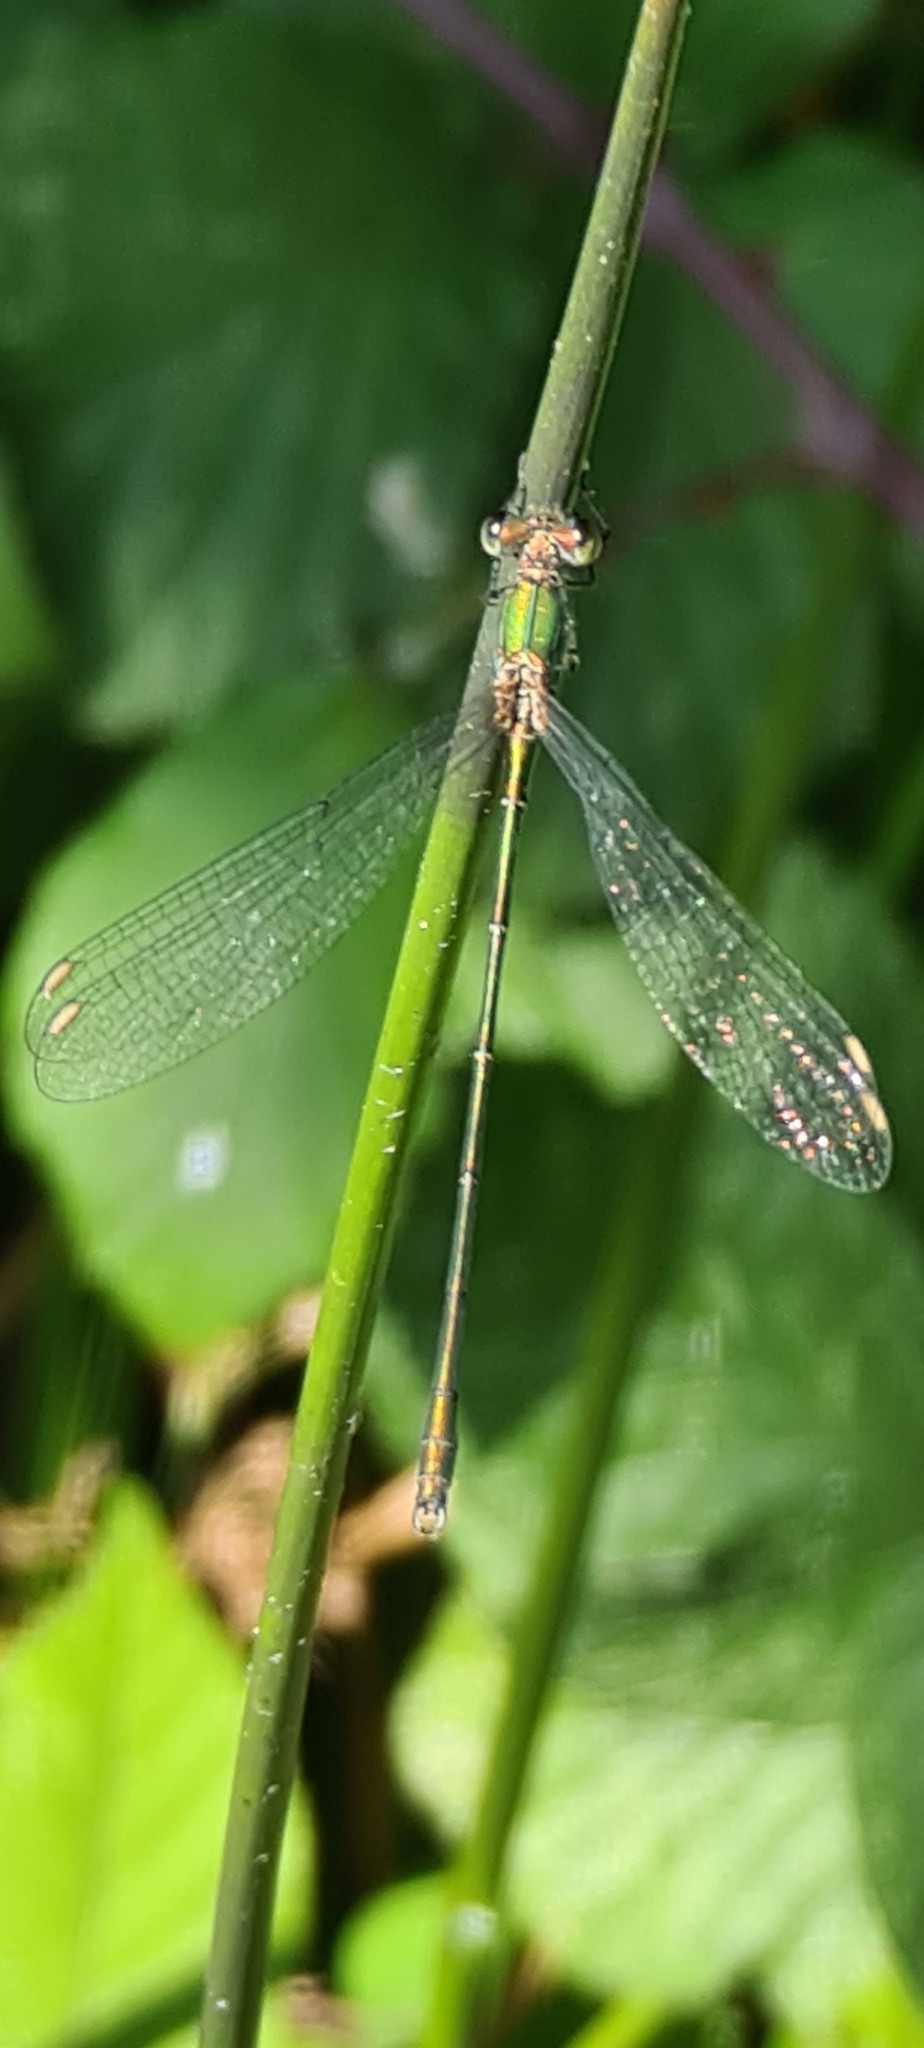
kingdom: Animalia
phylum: Arthropoda
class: Insecta
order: Odonata
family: Lestidae
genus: Chalcolestes
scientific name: Chalcolestes viridis
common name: Green emerald damselfly
